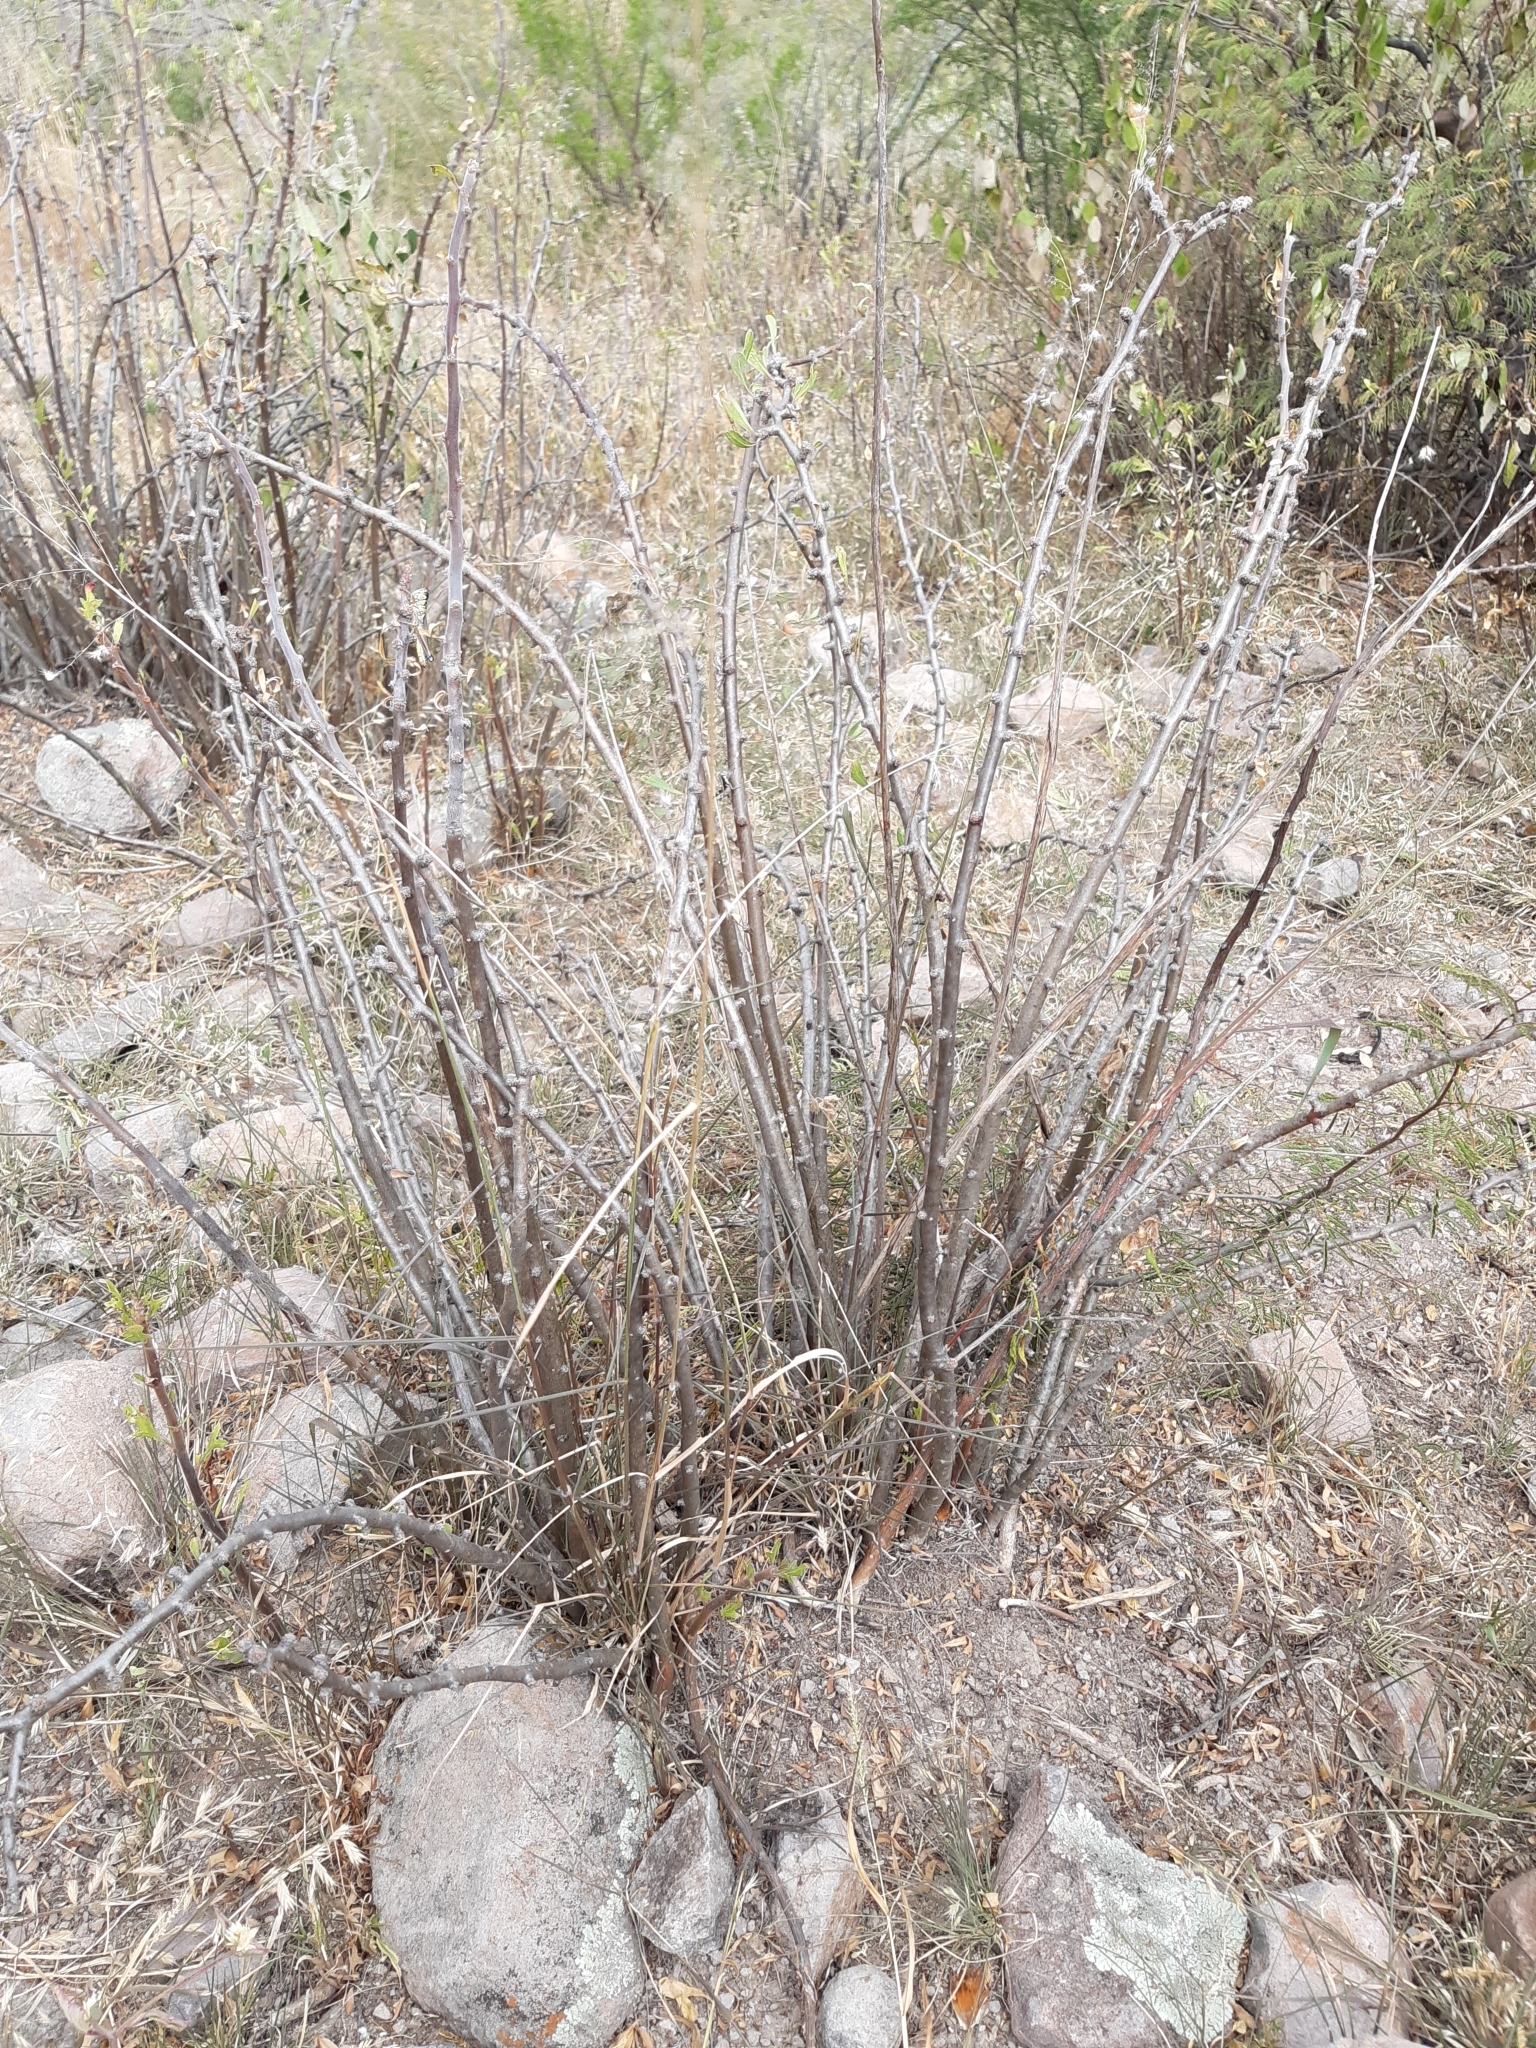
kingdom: Plantae
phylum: Tracheophyta
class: Magnoliopsida
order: Malpighiales
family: Euphorbiaceae
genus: Jatropha
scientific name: Jatropha dioica
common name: Leatherstem
